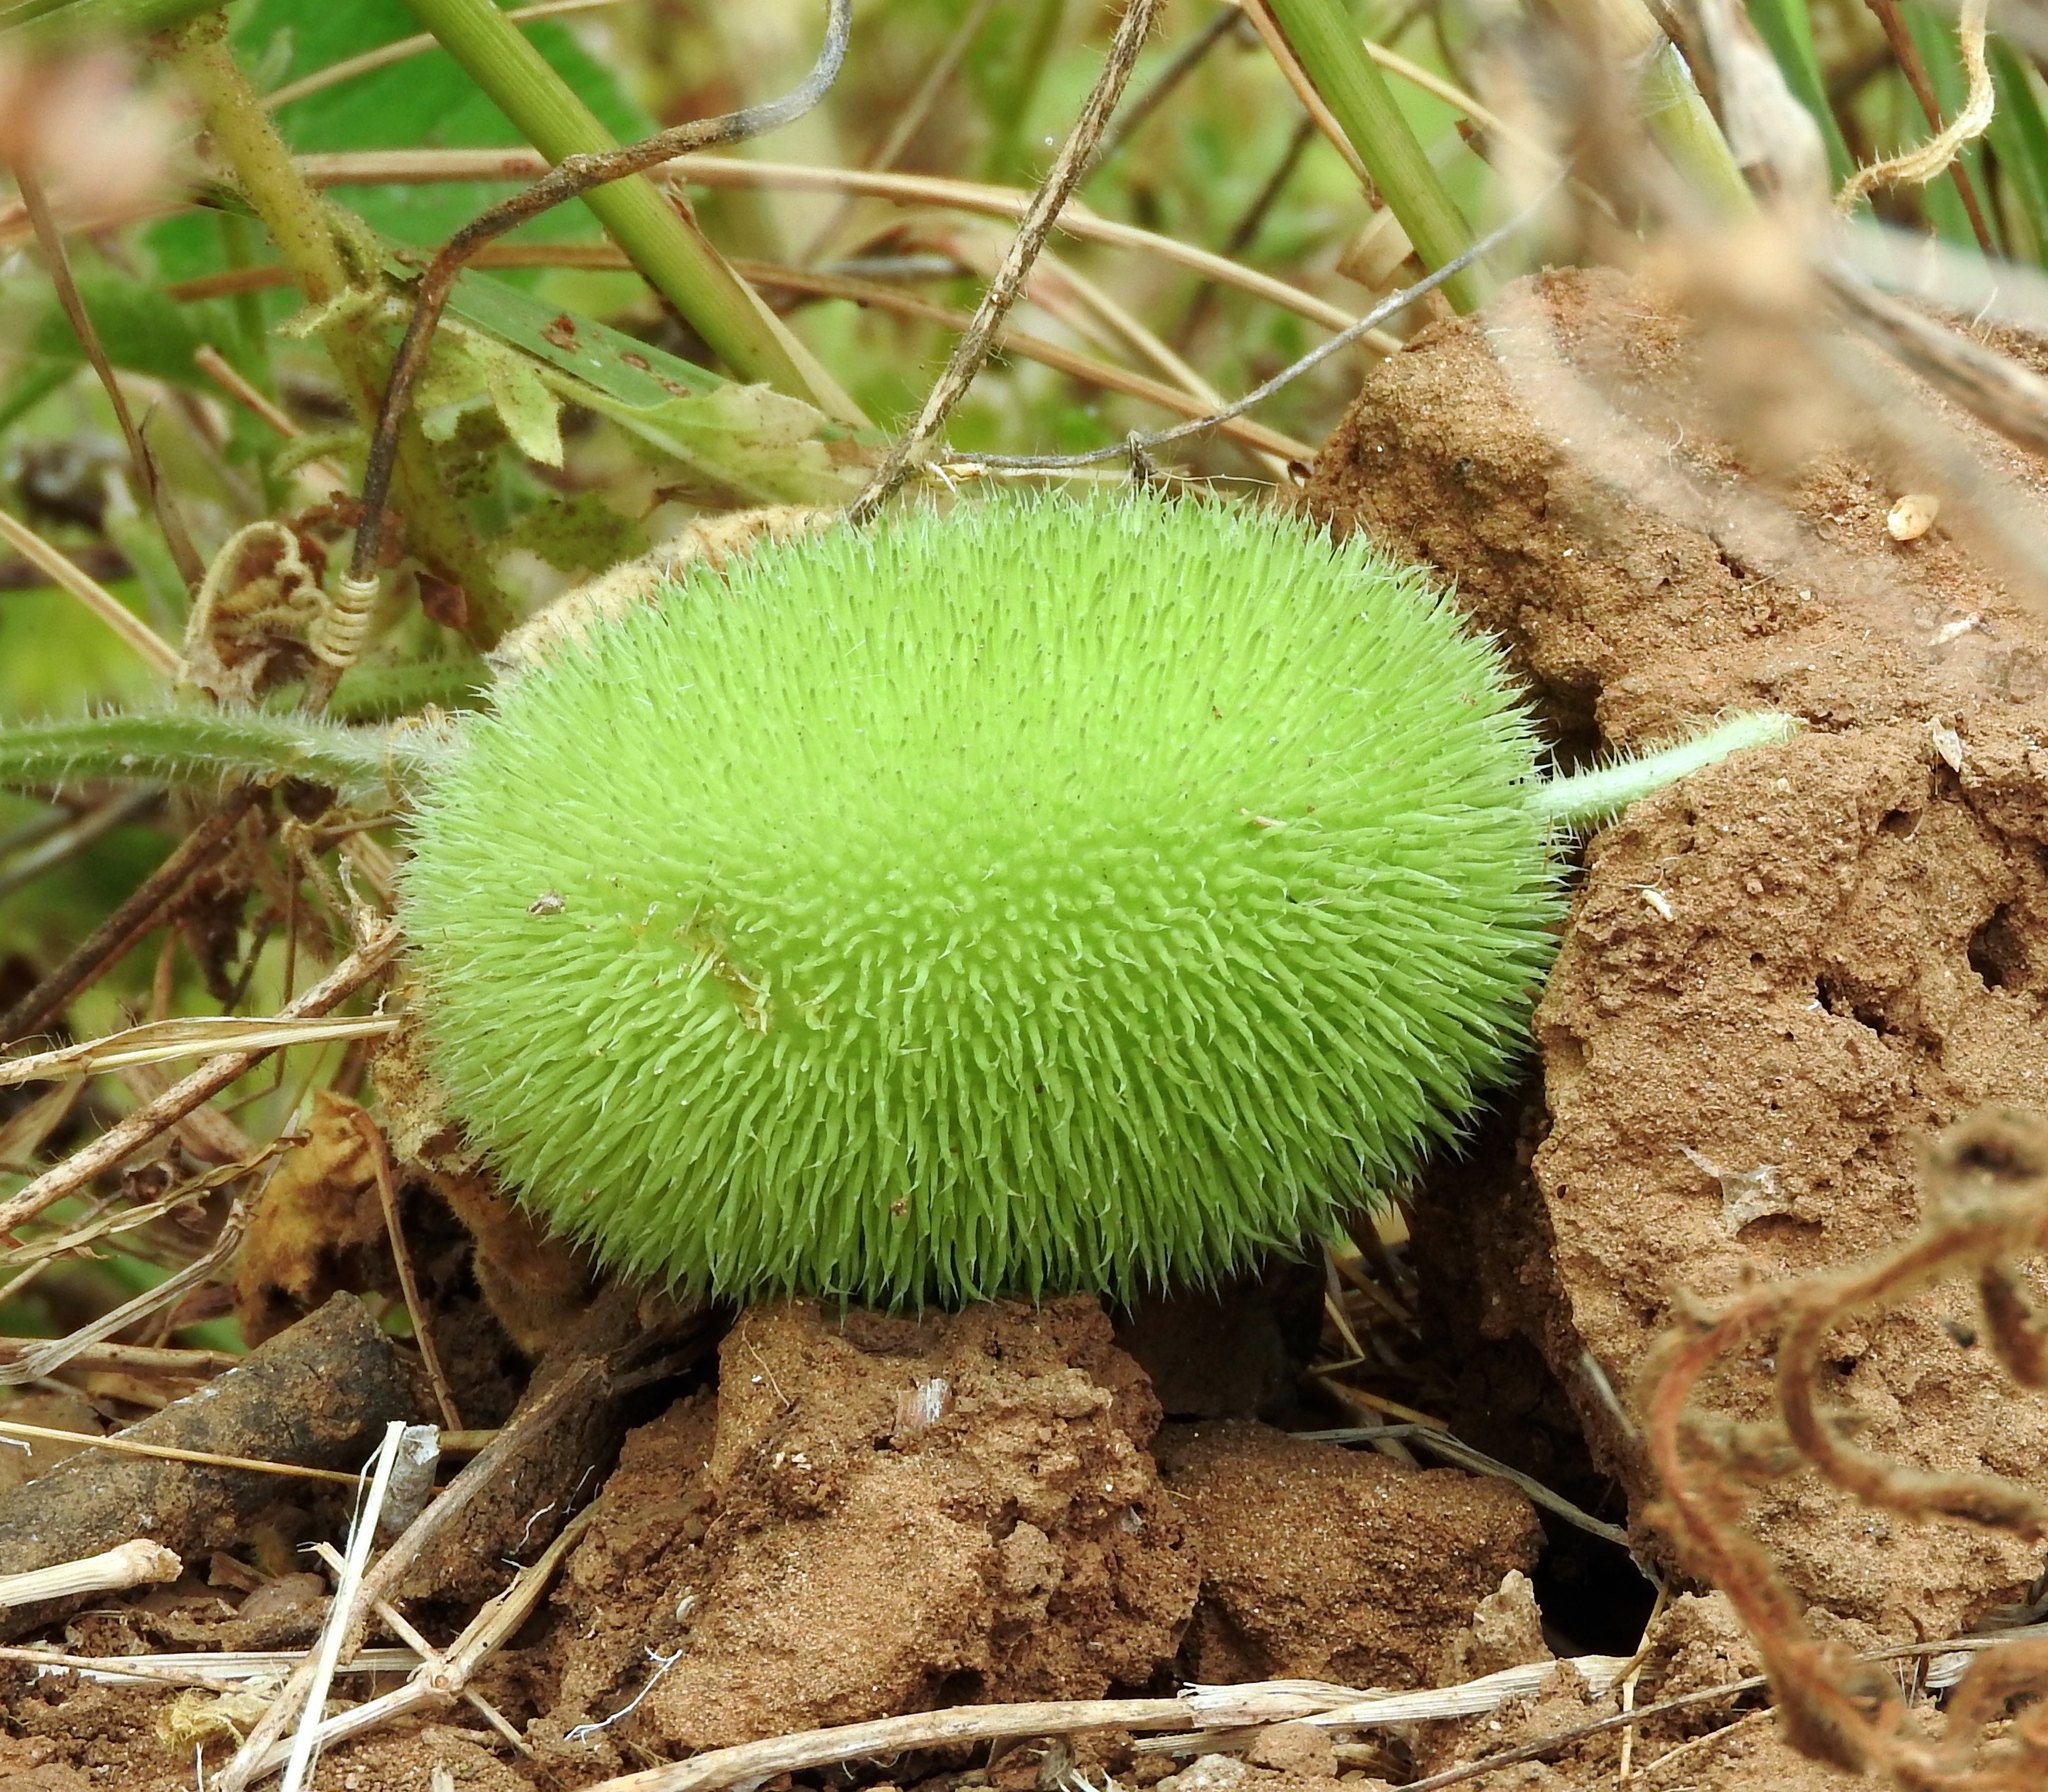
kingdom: Plantae
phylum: Tracheophyta
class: Magnoliopsida
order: Cucurbitales
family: Cucurbitaceae
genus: Cucumis
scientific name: Cucumis dipsaceus
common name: Hedgehog gourd
